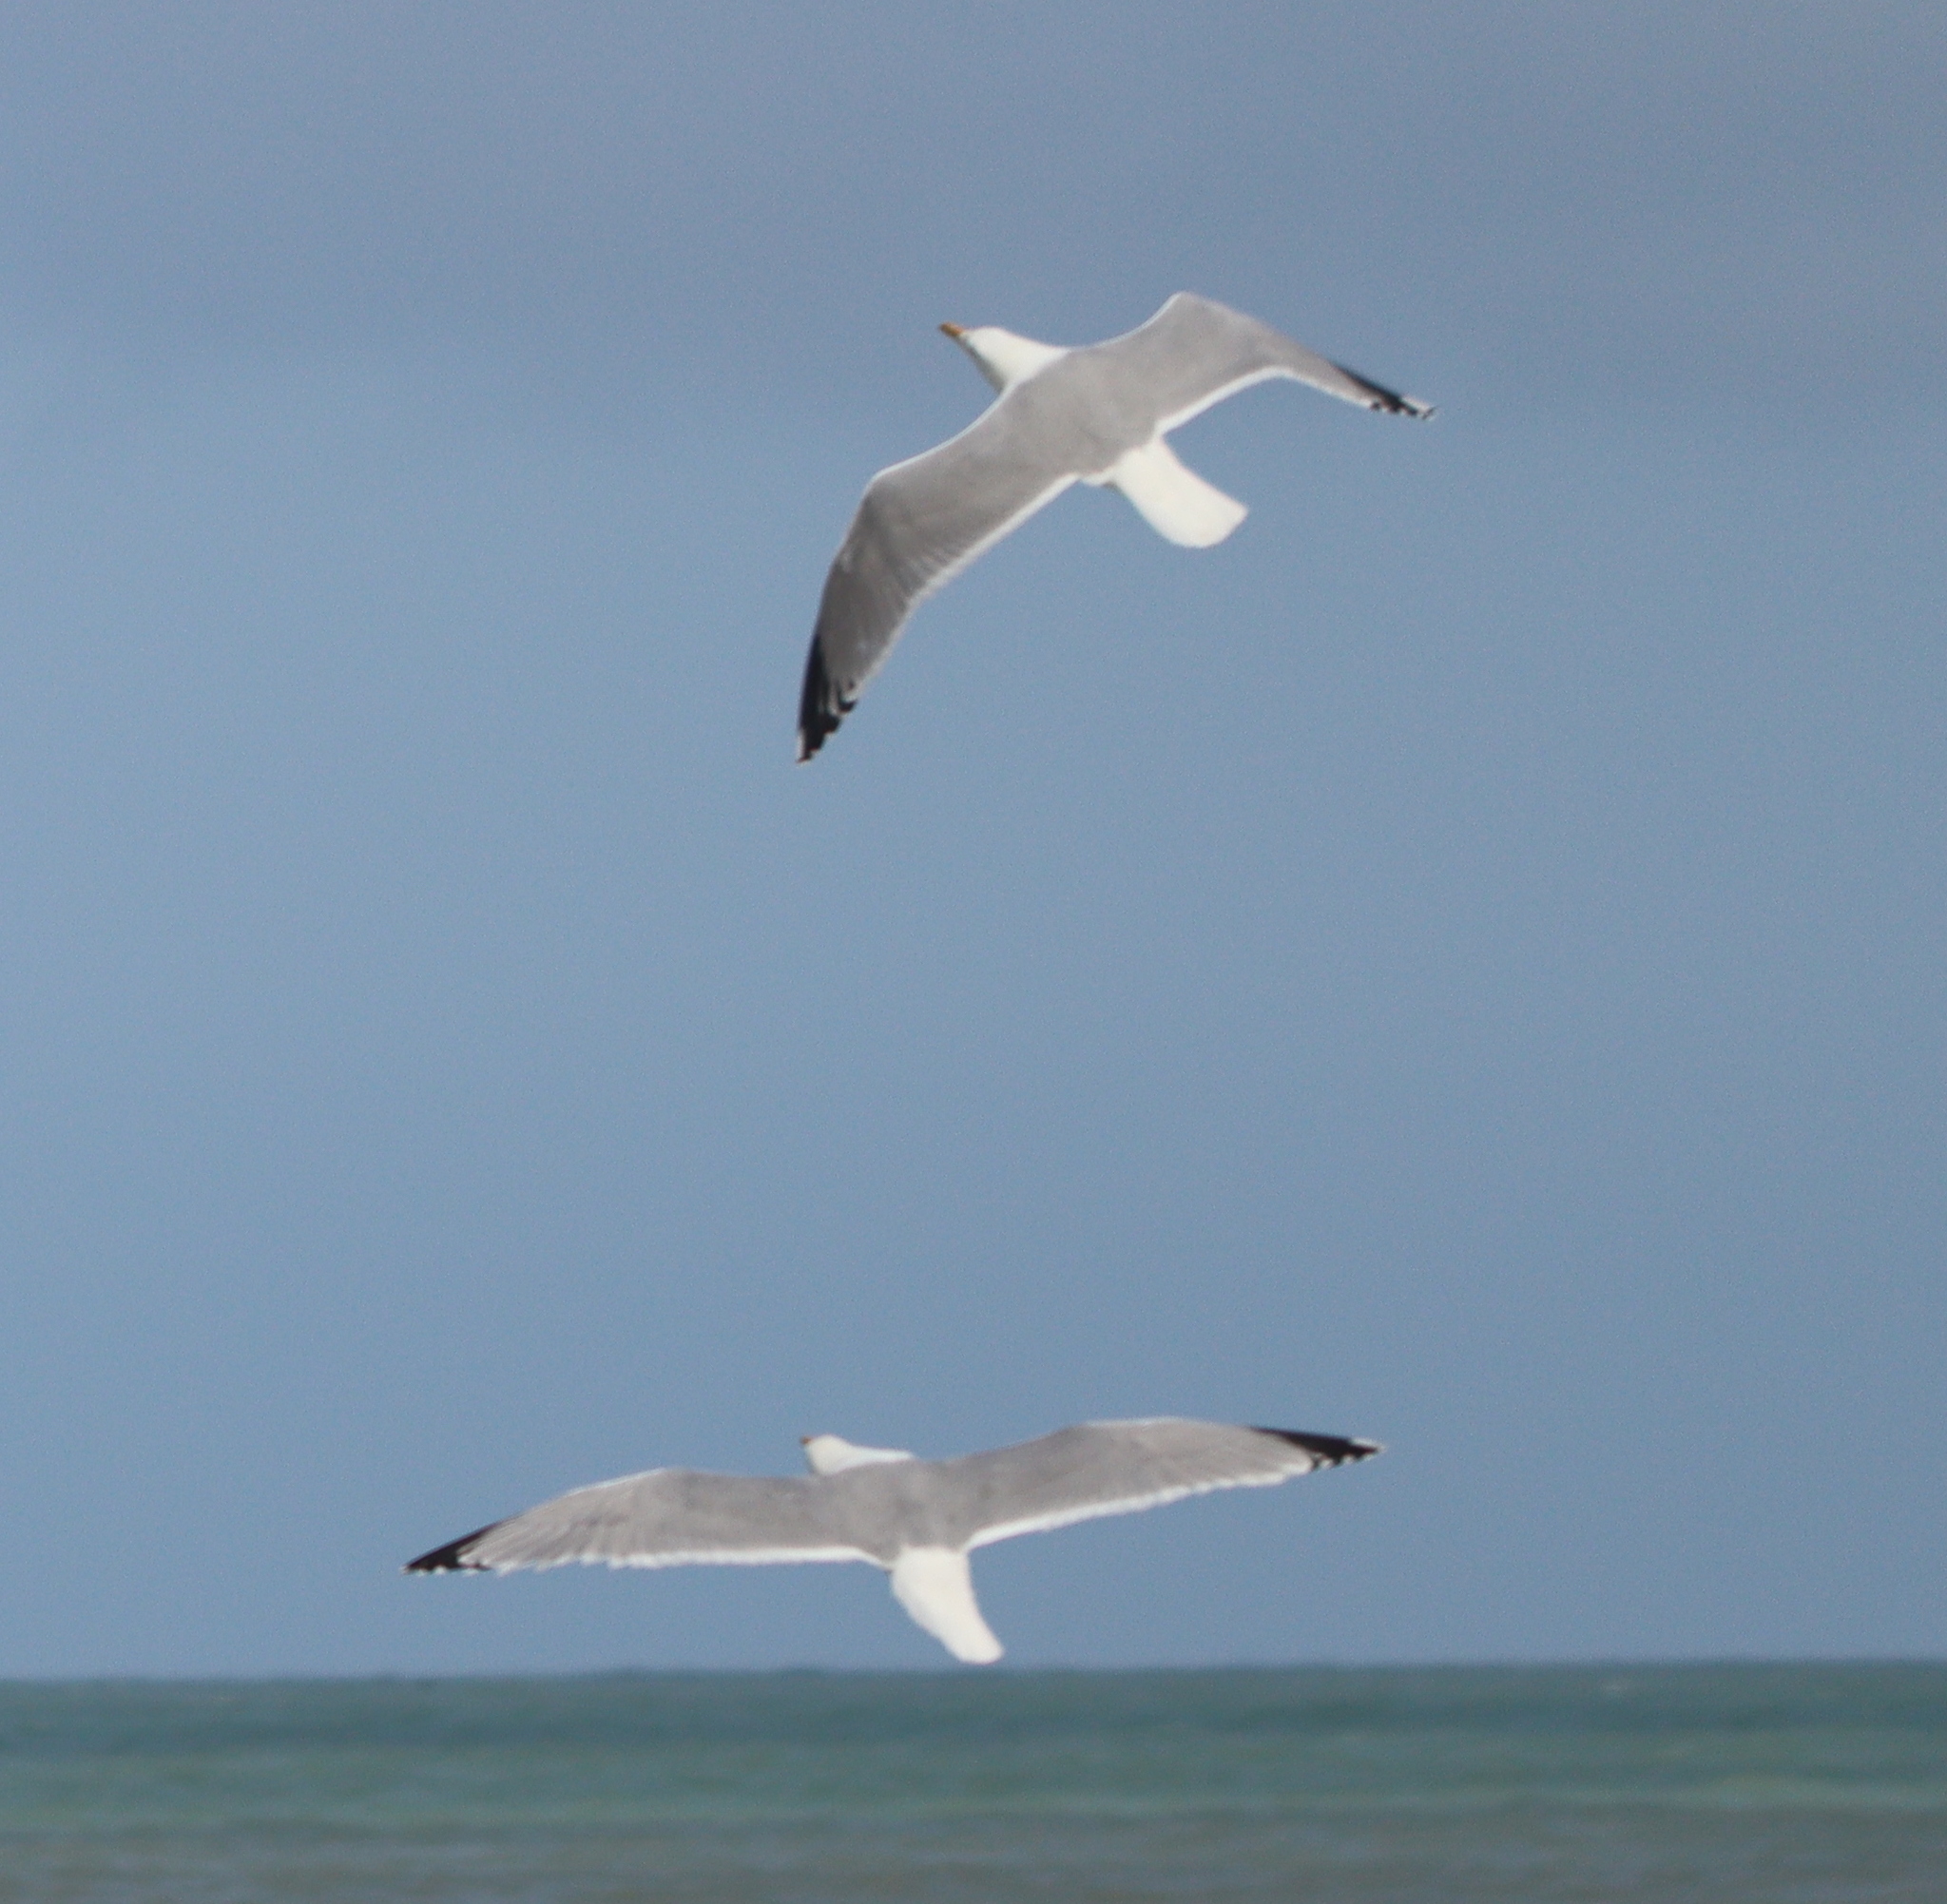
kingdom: Animalia
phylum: Chordata
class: Aves
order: Charadriiformes
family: Laridae
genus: Larus
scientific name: Larus argentatus
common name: Herring gull
